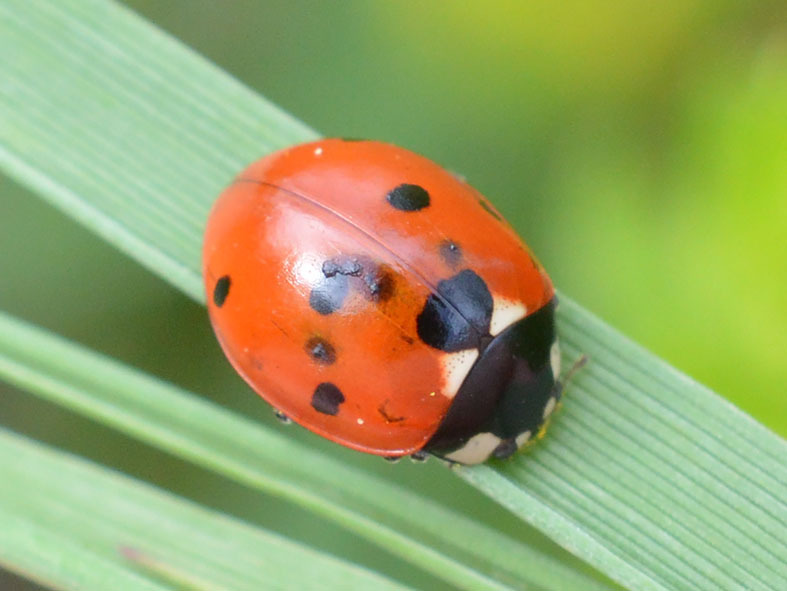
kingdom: Animalia
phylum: Arthropoda
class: Insecta
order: Coleoptera
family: Coccinellidae
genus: Coccinella
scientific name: Coccinella septempunctata
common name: Sevenspotted lady beetle
